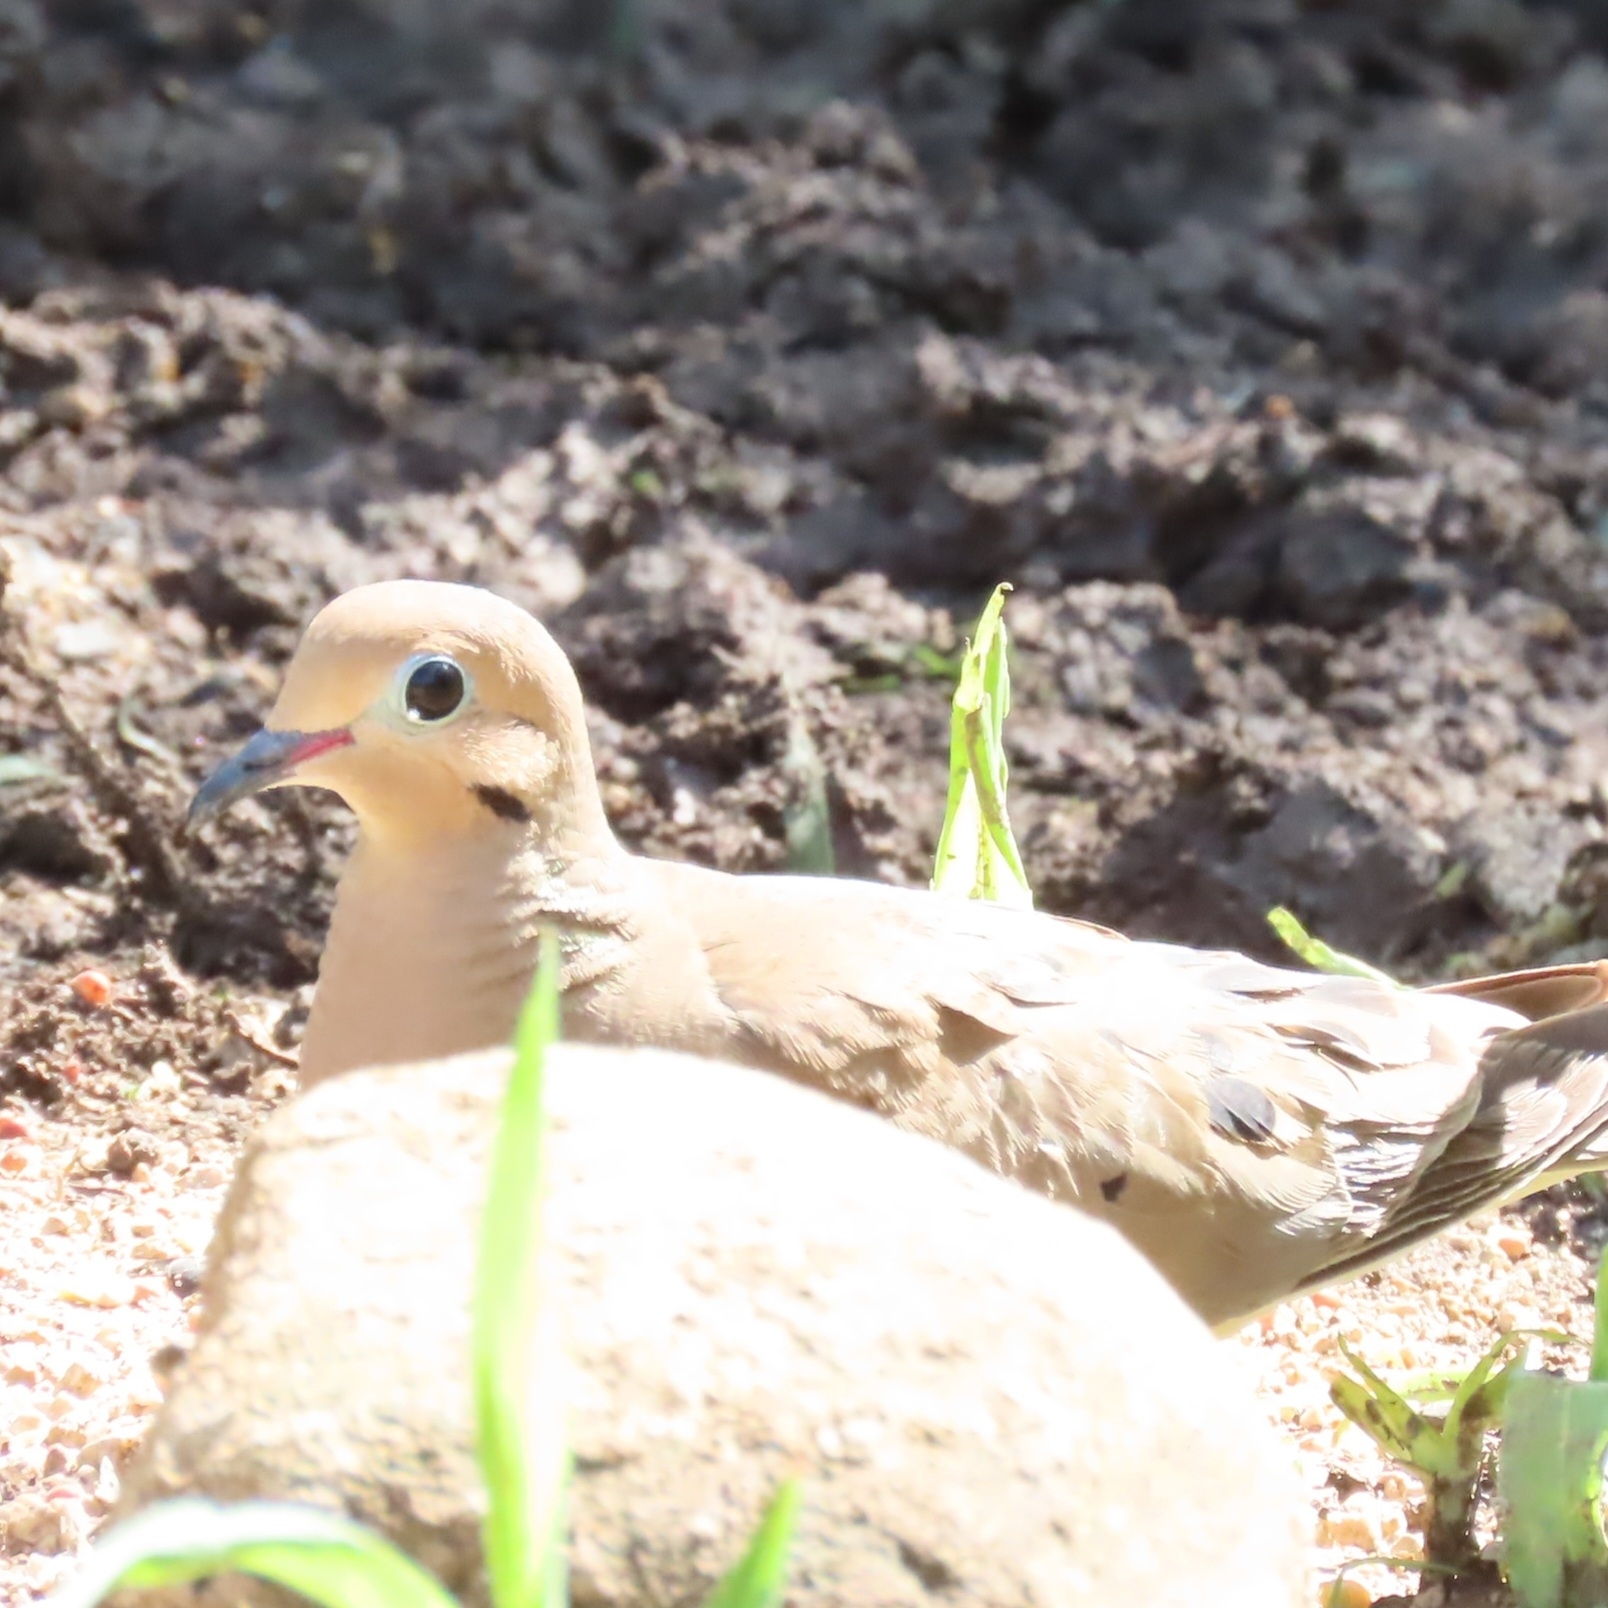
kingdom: Animalia
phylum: Chordata
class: Aves
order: Columbiformes
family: Columbidae
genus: Zenaida
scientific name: Zenaida macroura
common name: Mourning dove
